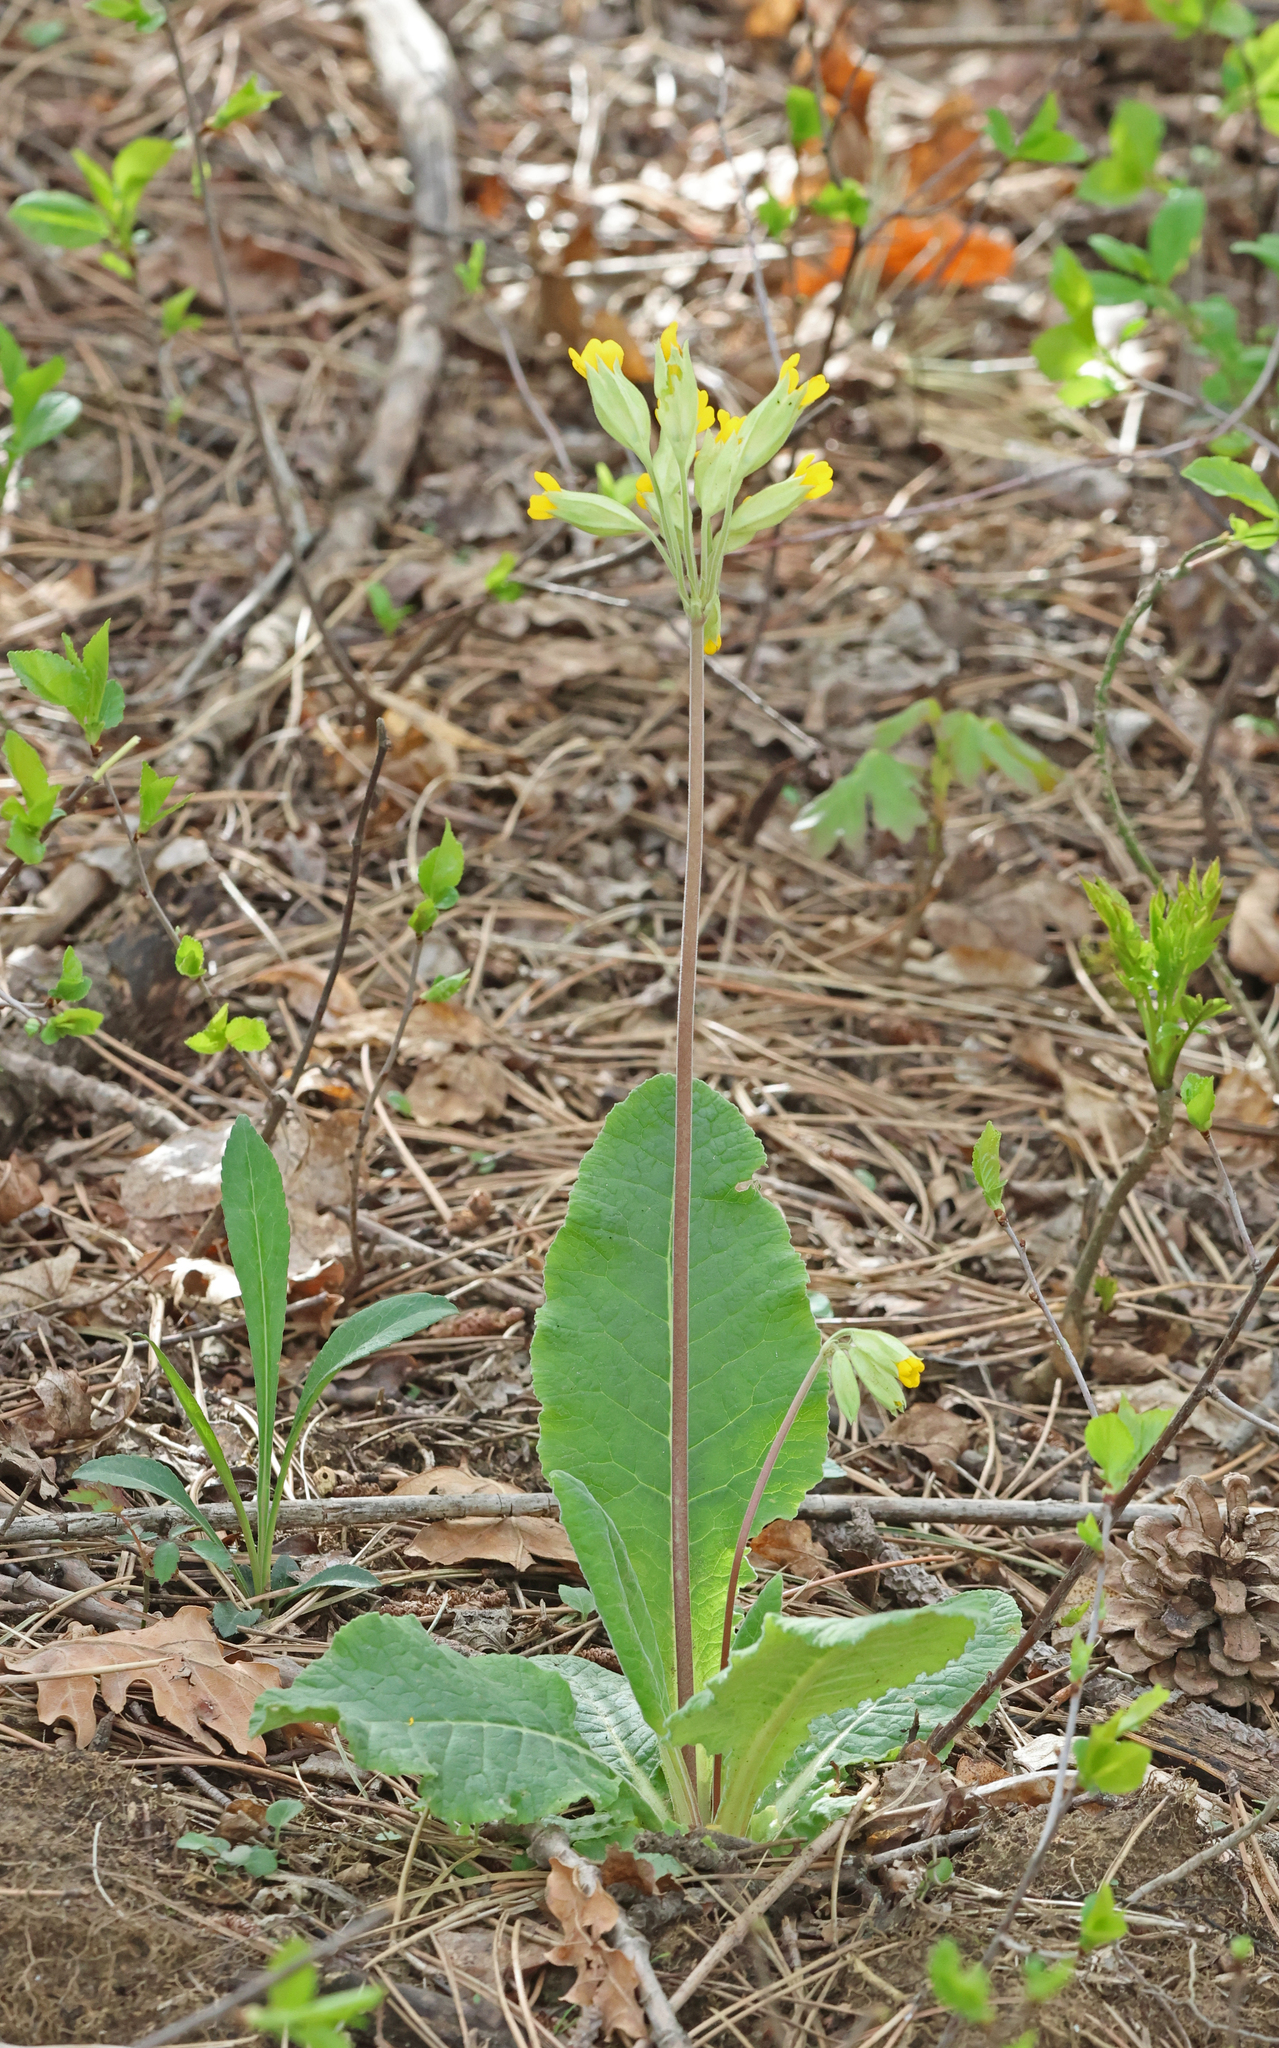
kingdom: Plantae
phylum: Tracheophyta
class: Magnoliopsida
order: Ericales
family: Primulaceae
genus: Primula
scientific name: Primula veris
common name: Cowslip
